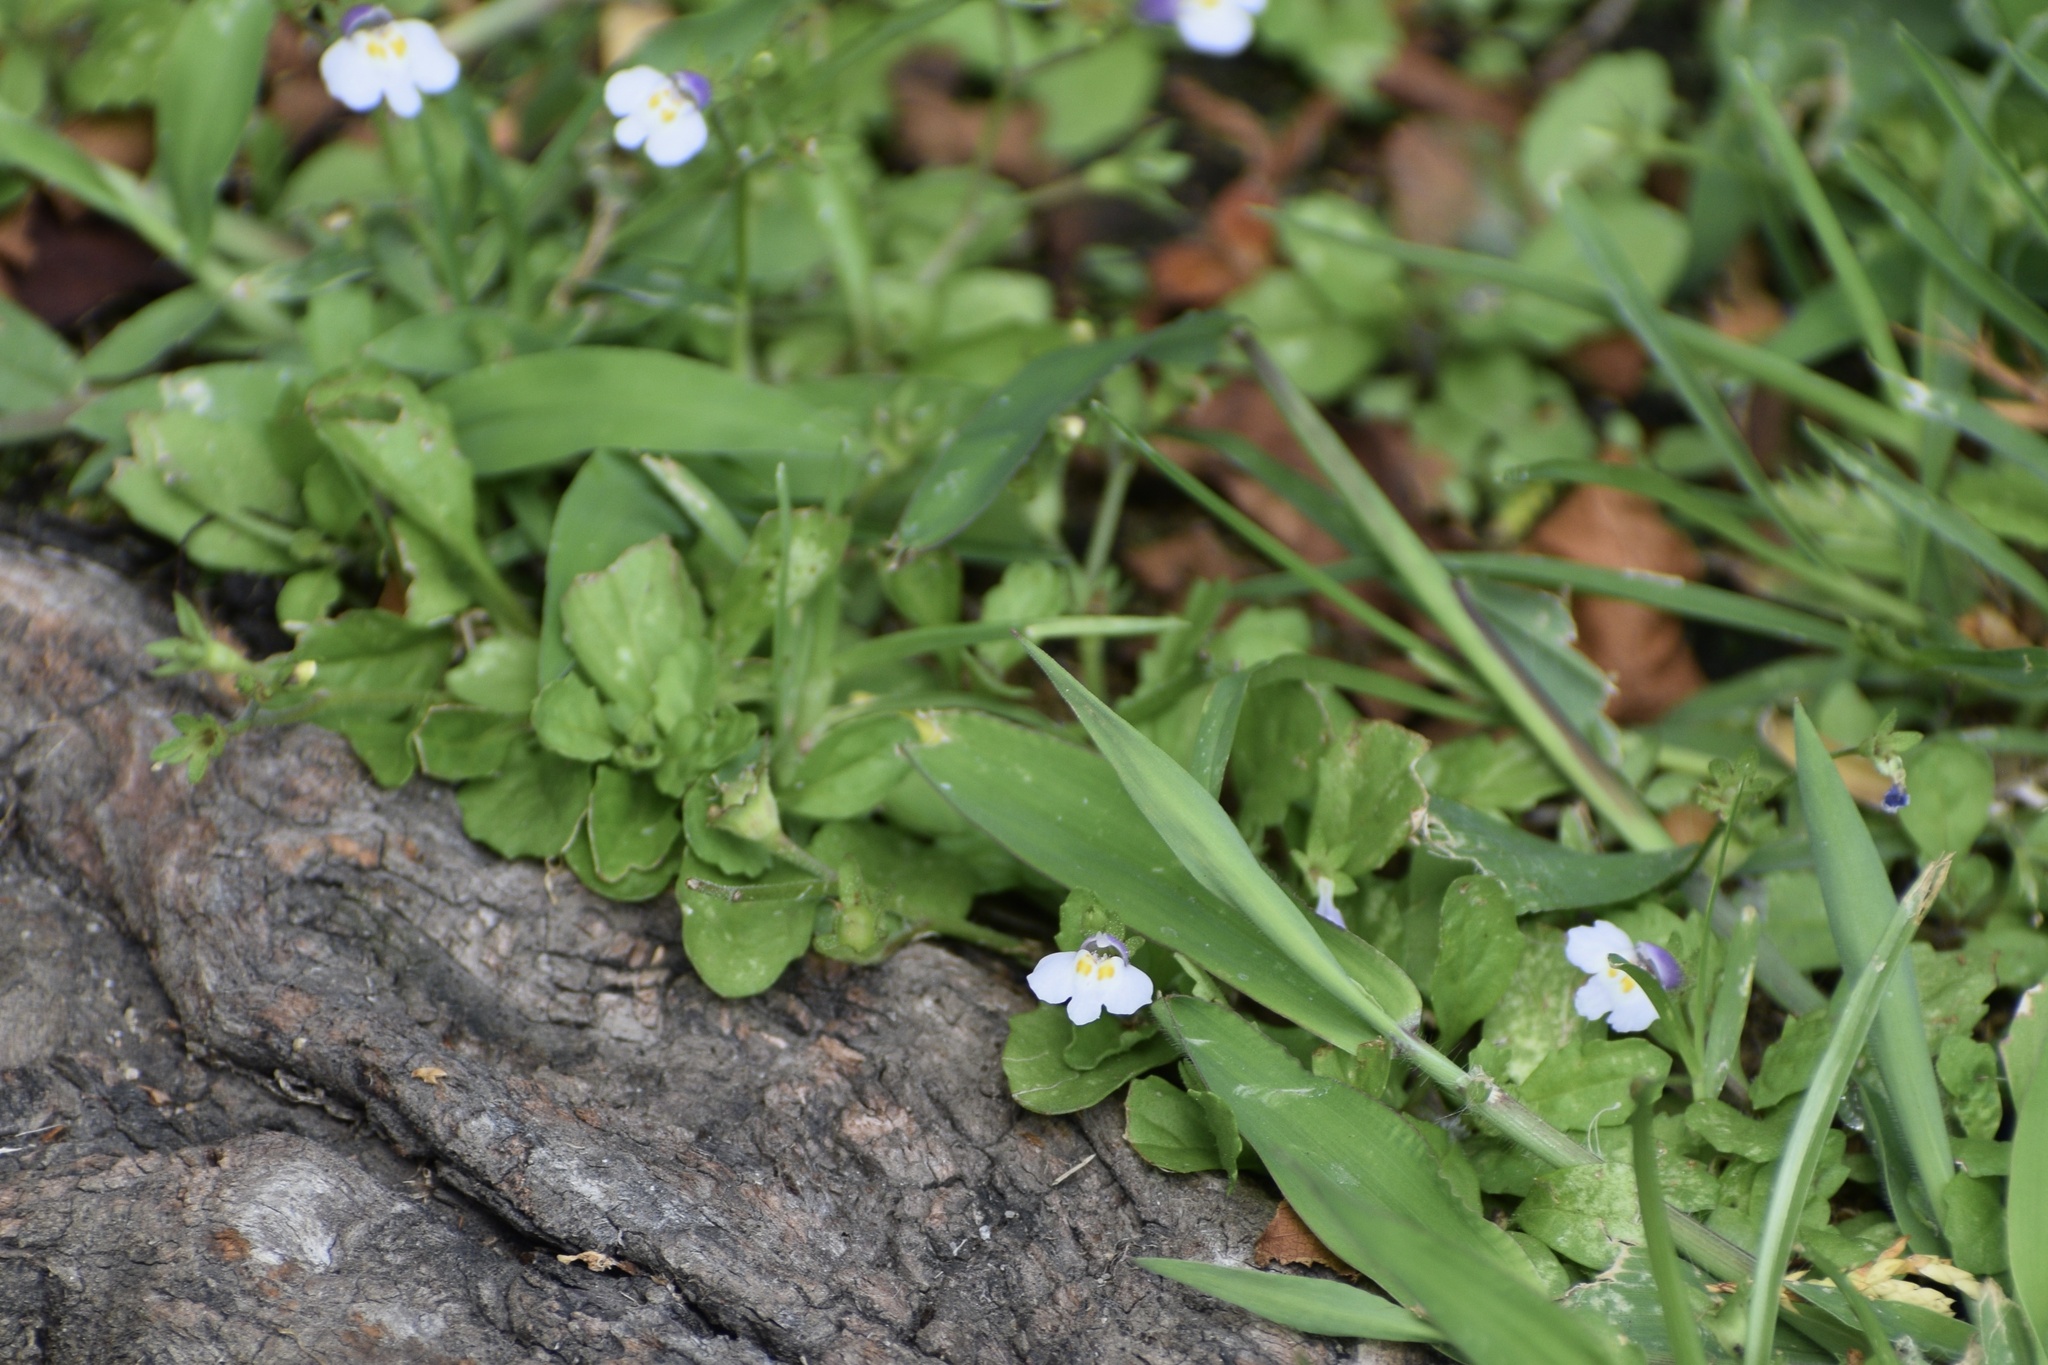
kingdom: Plantae
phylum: Tracheophyta
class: Magnoliopsida
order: Lamiales
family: Mazaceae
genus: Mazus
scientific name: Mazus pumilus
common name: Japanese mazus
